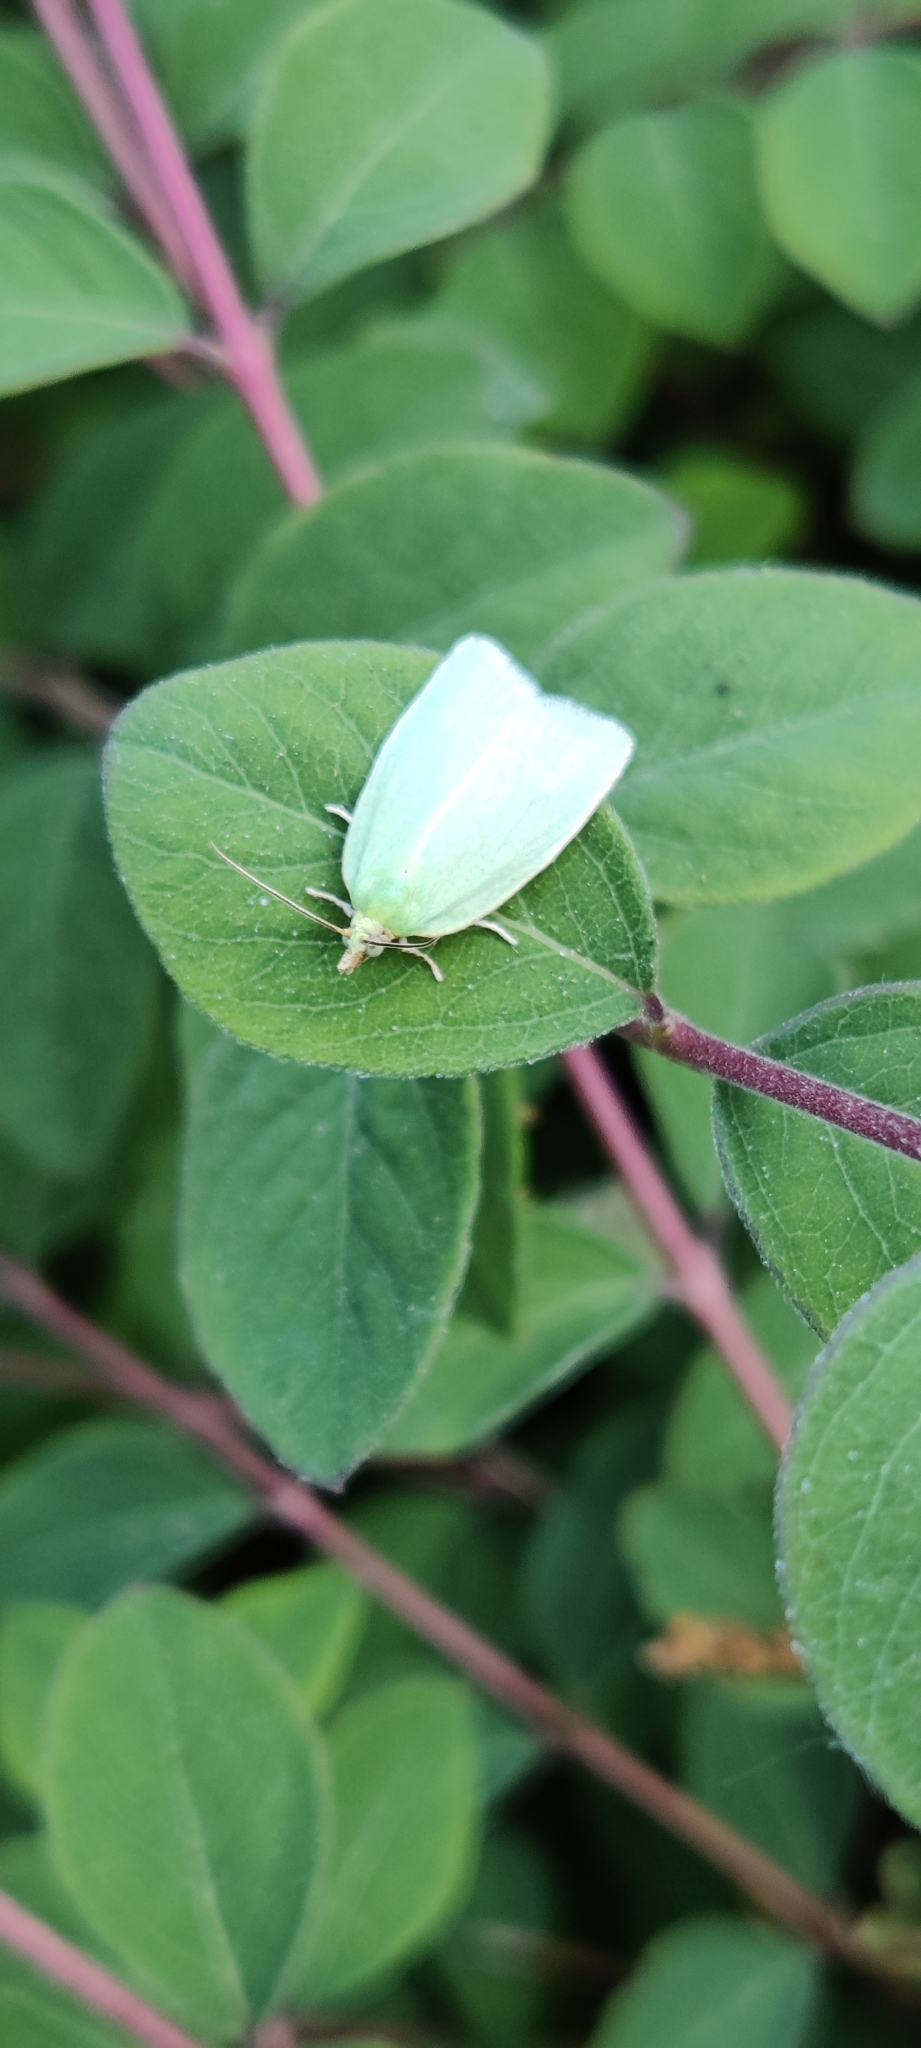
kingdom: Animalia
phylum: Arthropoda
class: Insecta
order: Lepidoptera
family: Tortricidae
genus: Tortrix
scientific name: Tortrix viridana
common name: Green oak tortrix
